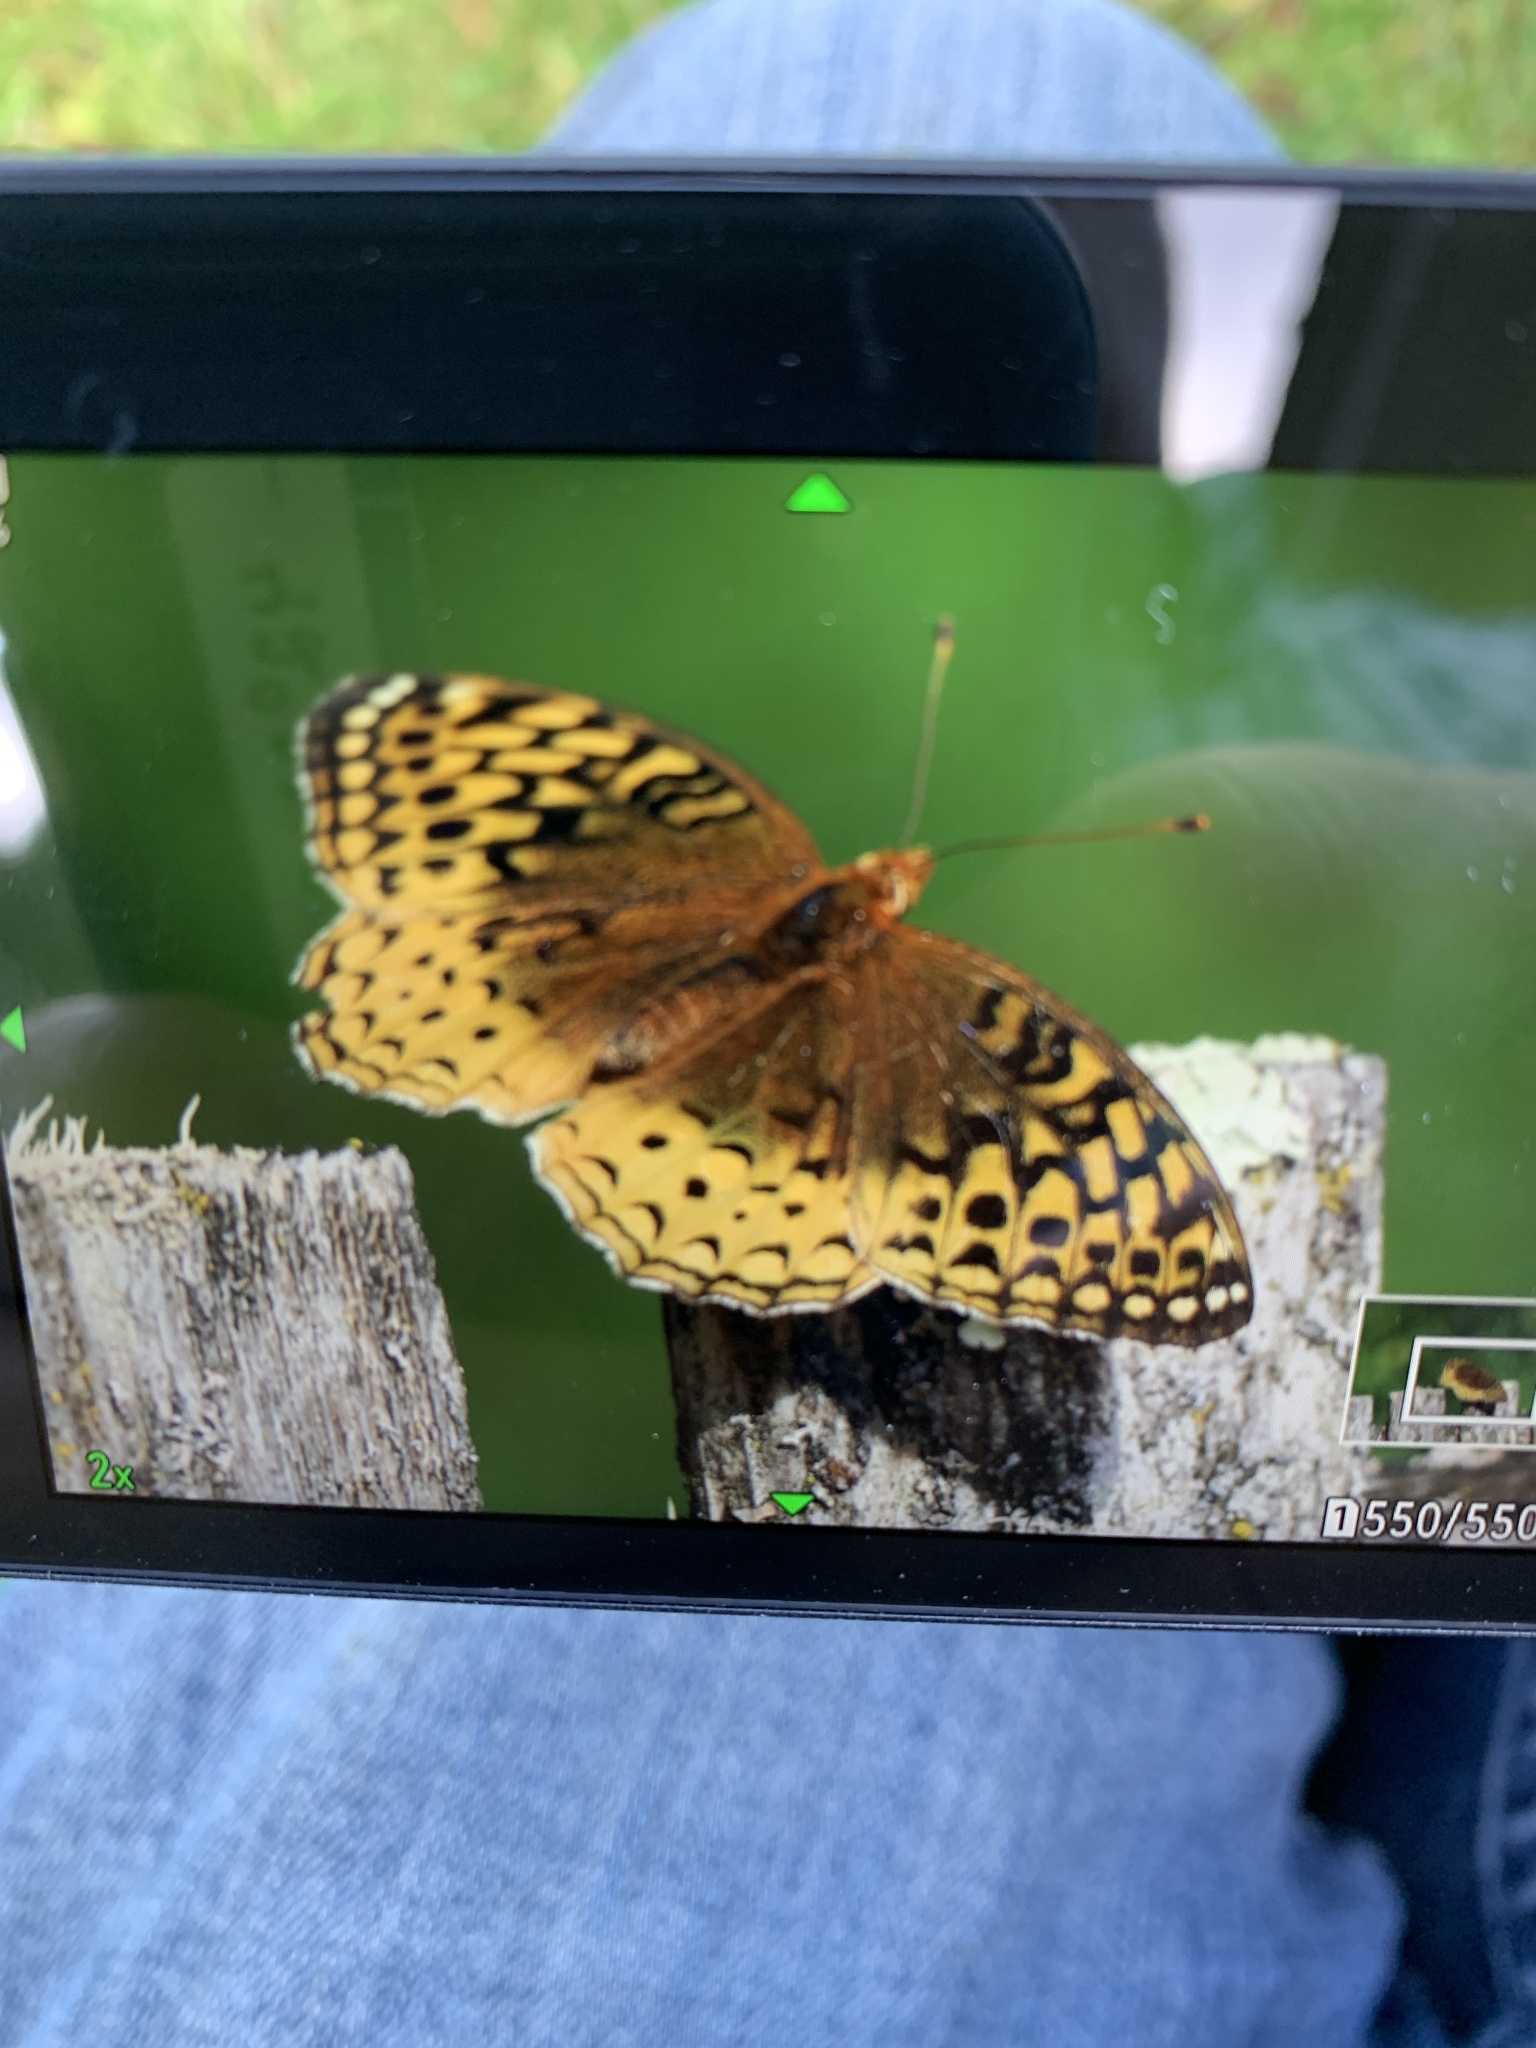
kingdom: Animalia
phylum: Arthropoda
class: Insecta
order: Lepidoptera
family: Nymphalidae
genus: Speyeria
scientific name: Speyeria cybele
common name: Great spangled fritillary
